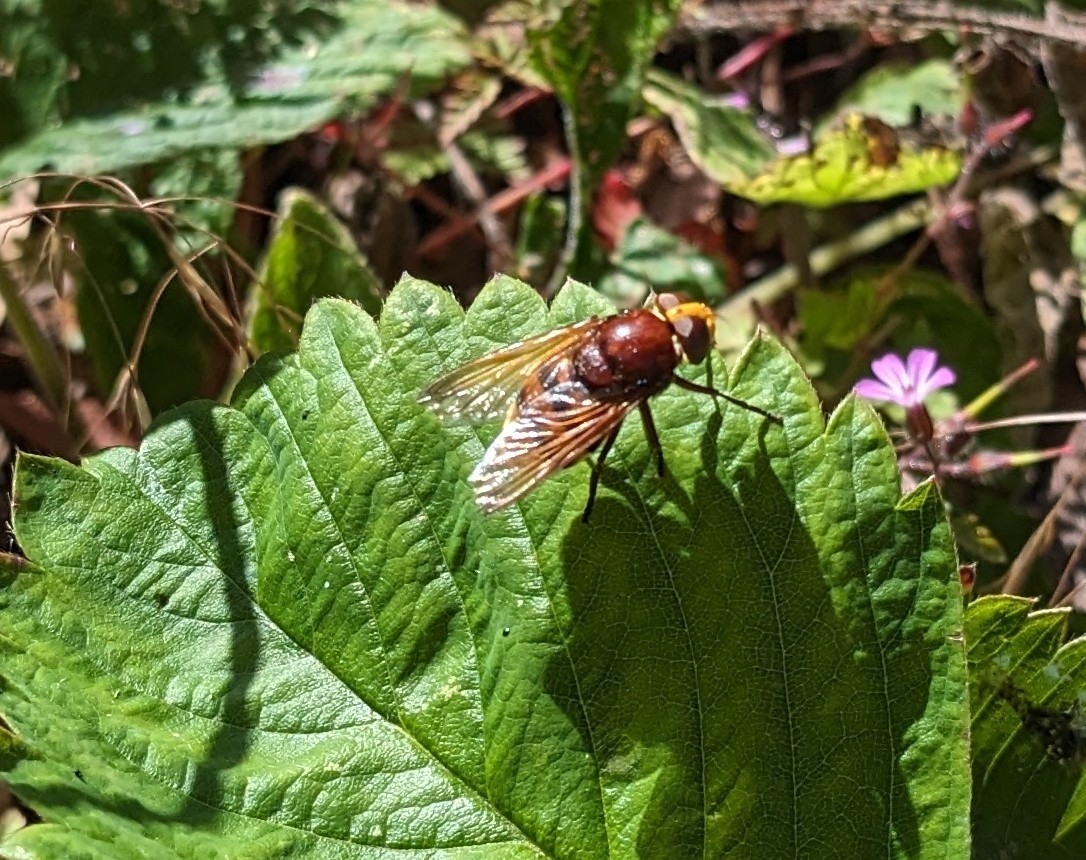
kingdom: Animalia
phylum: Arthropoda
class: Insecta
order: Diptera
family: Syrphidae
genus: Volucella
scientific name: Volucella zonaria
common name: Hornet hoverfly
